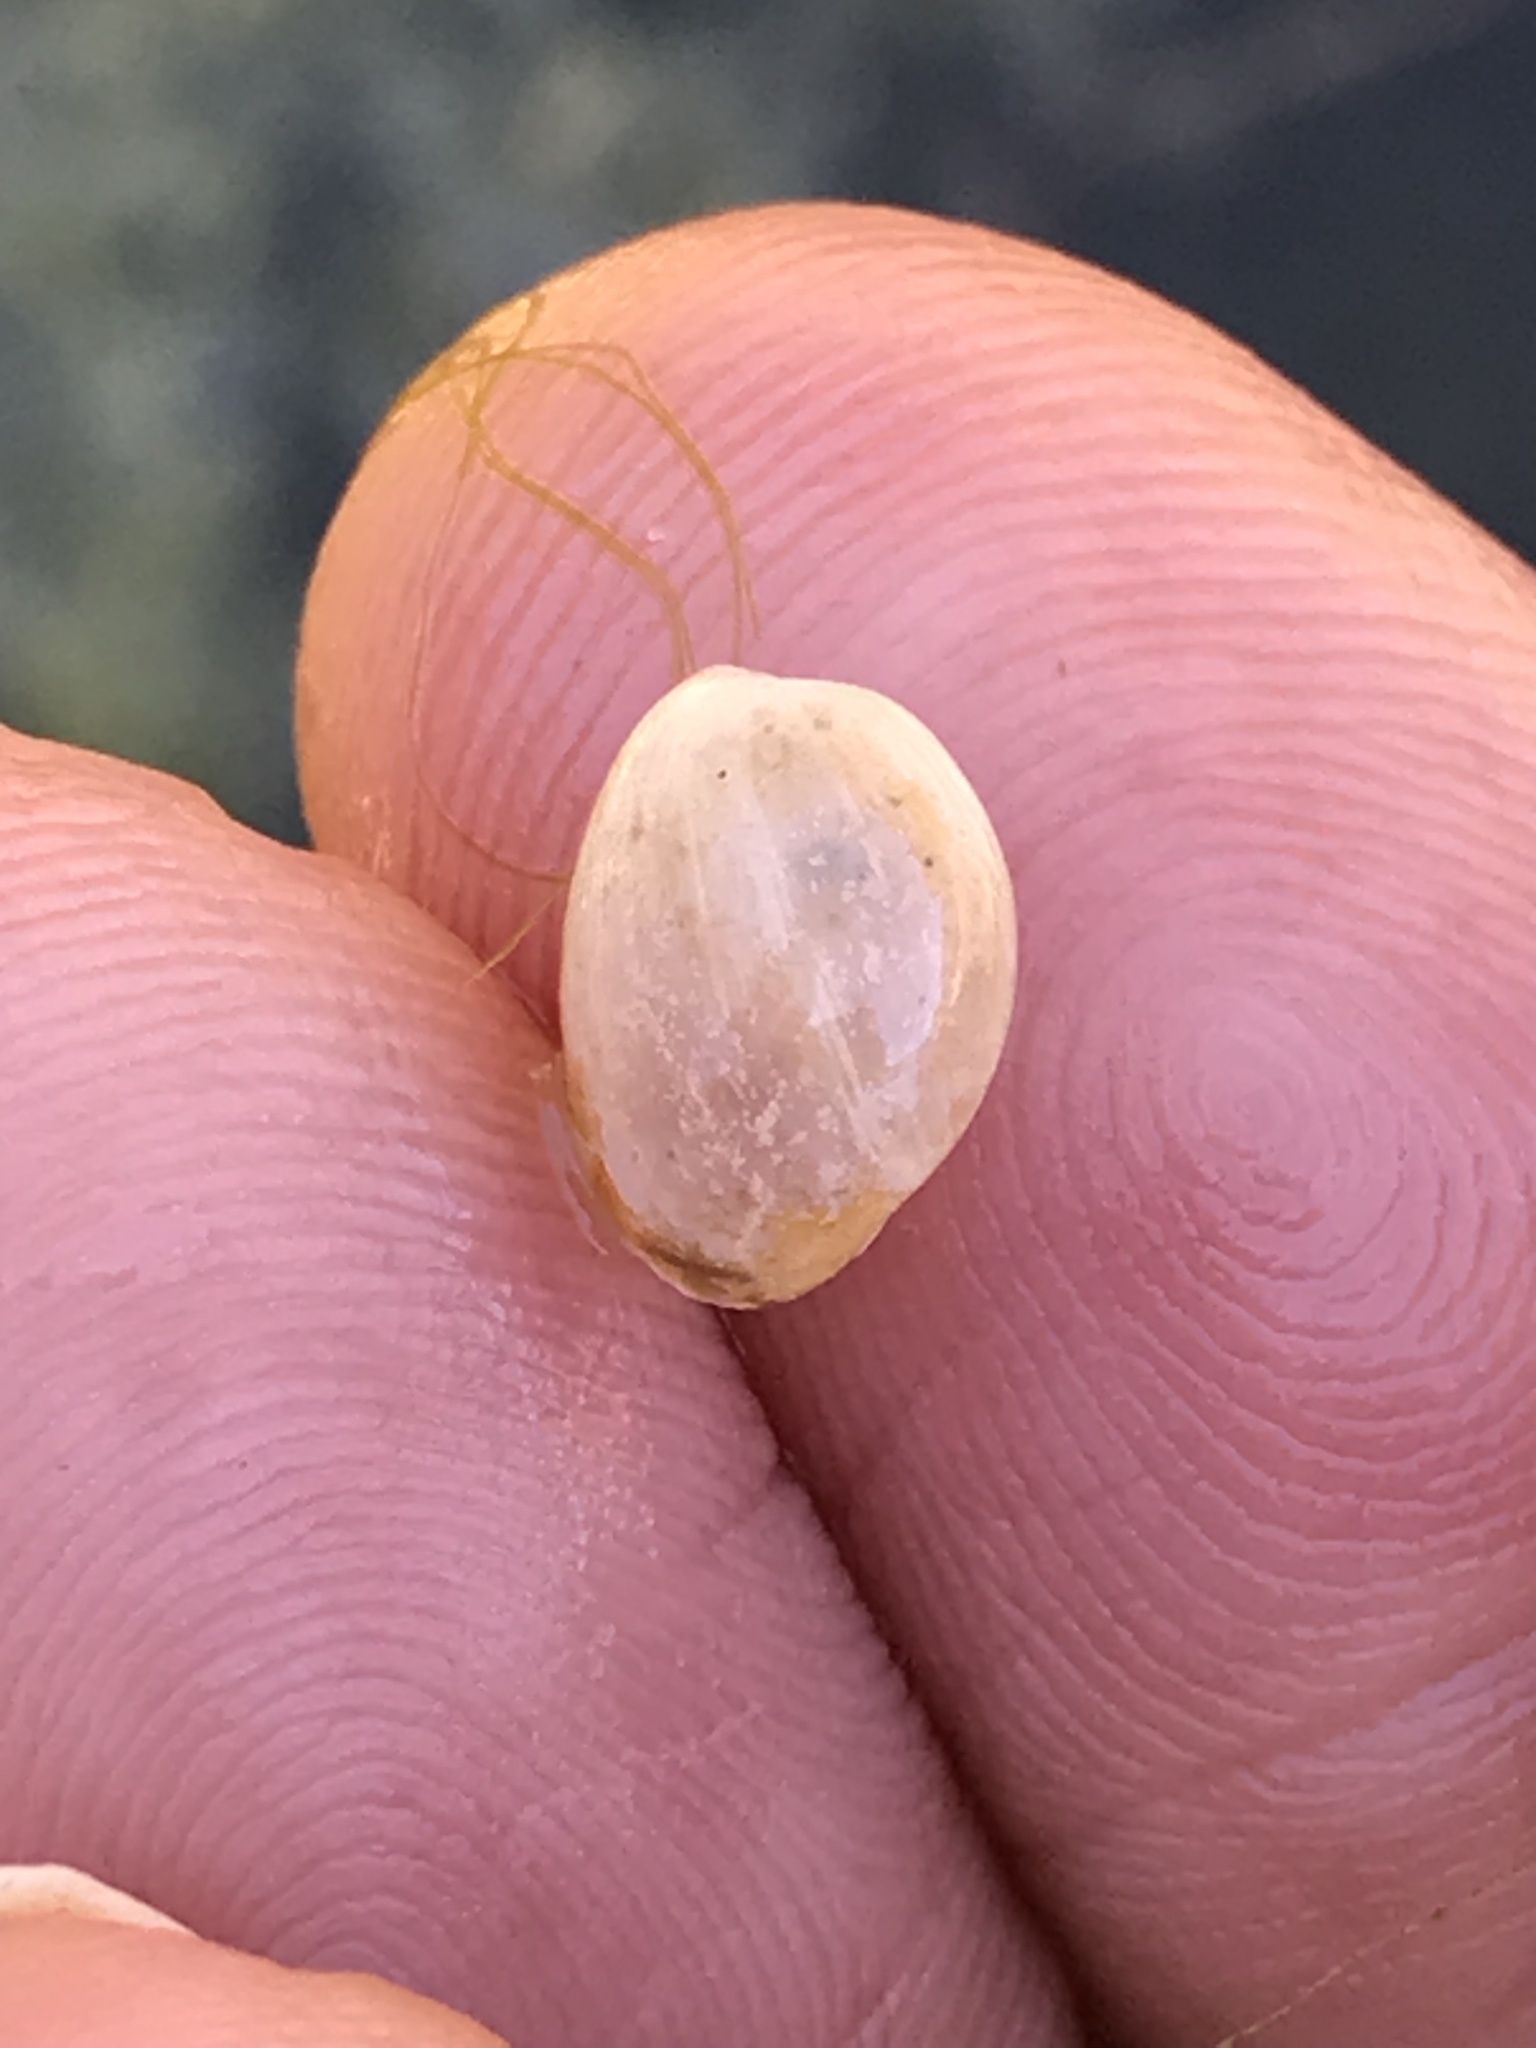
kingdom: Animalia
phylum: Mollusca
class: Gastropoda
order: Cephalaspidea
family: Haminoeidae
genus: Haloa
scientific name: Haloa japonica
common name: Japanese bubble snail
